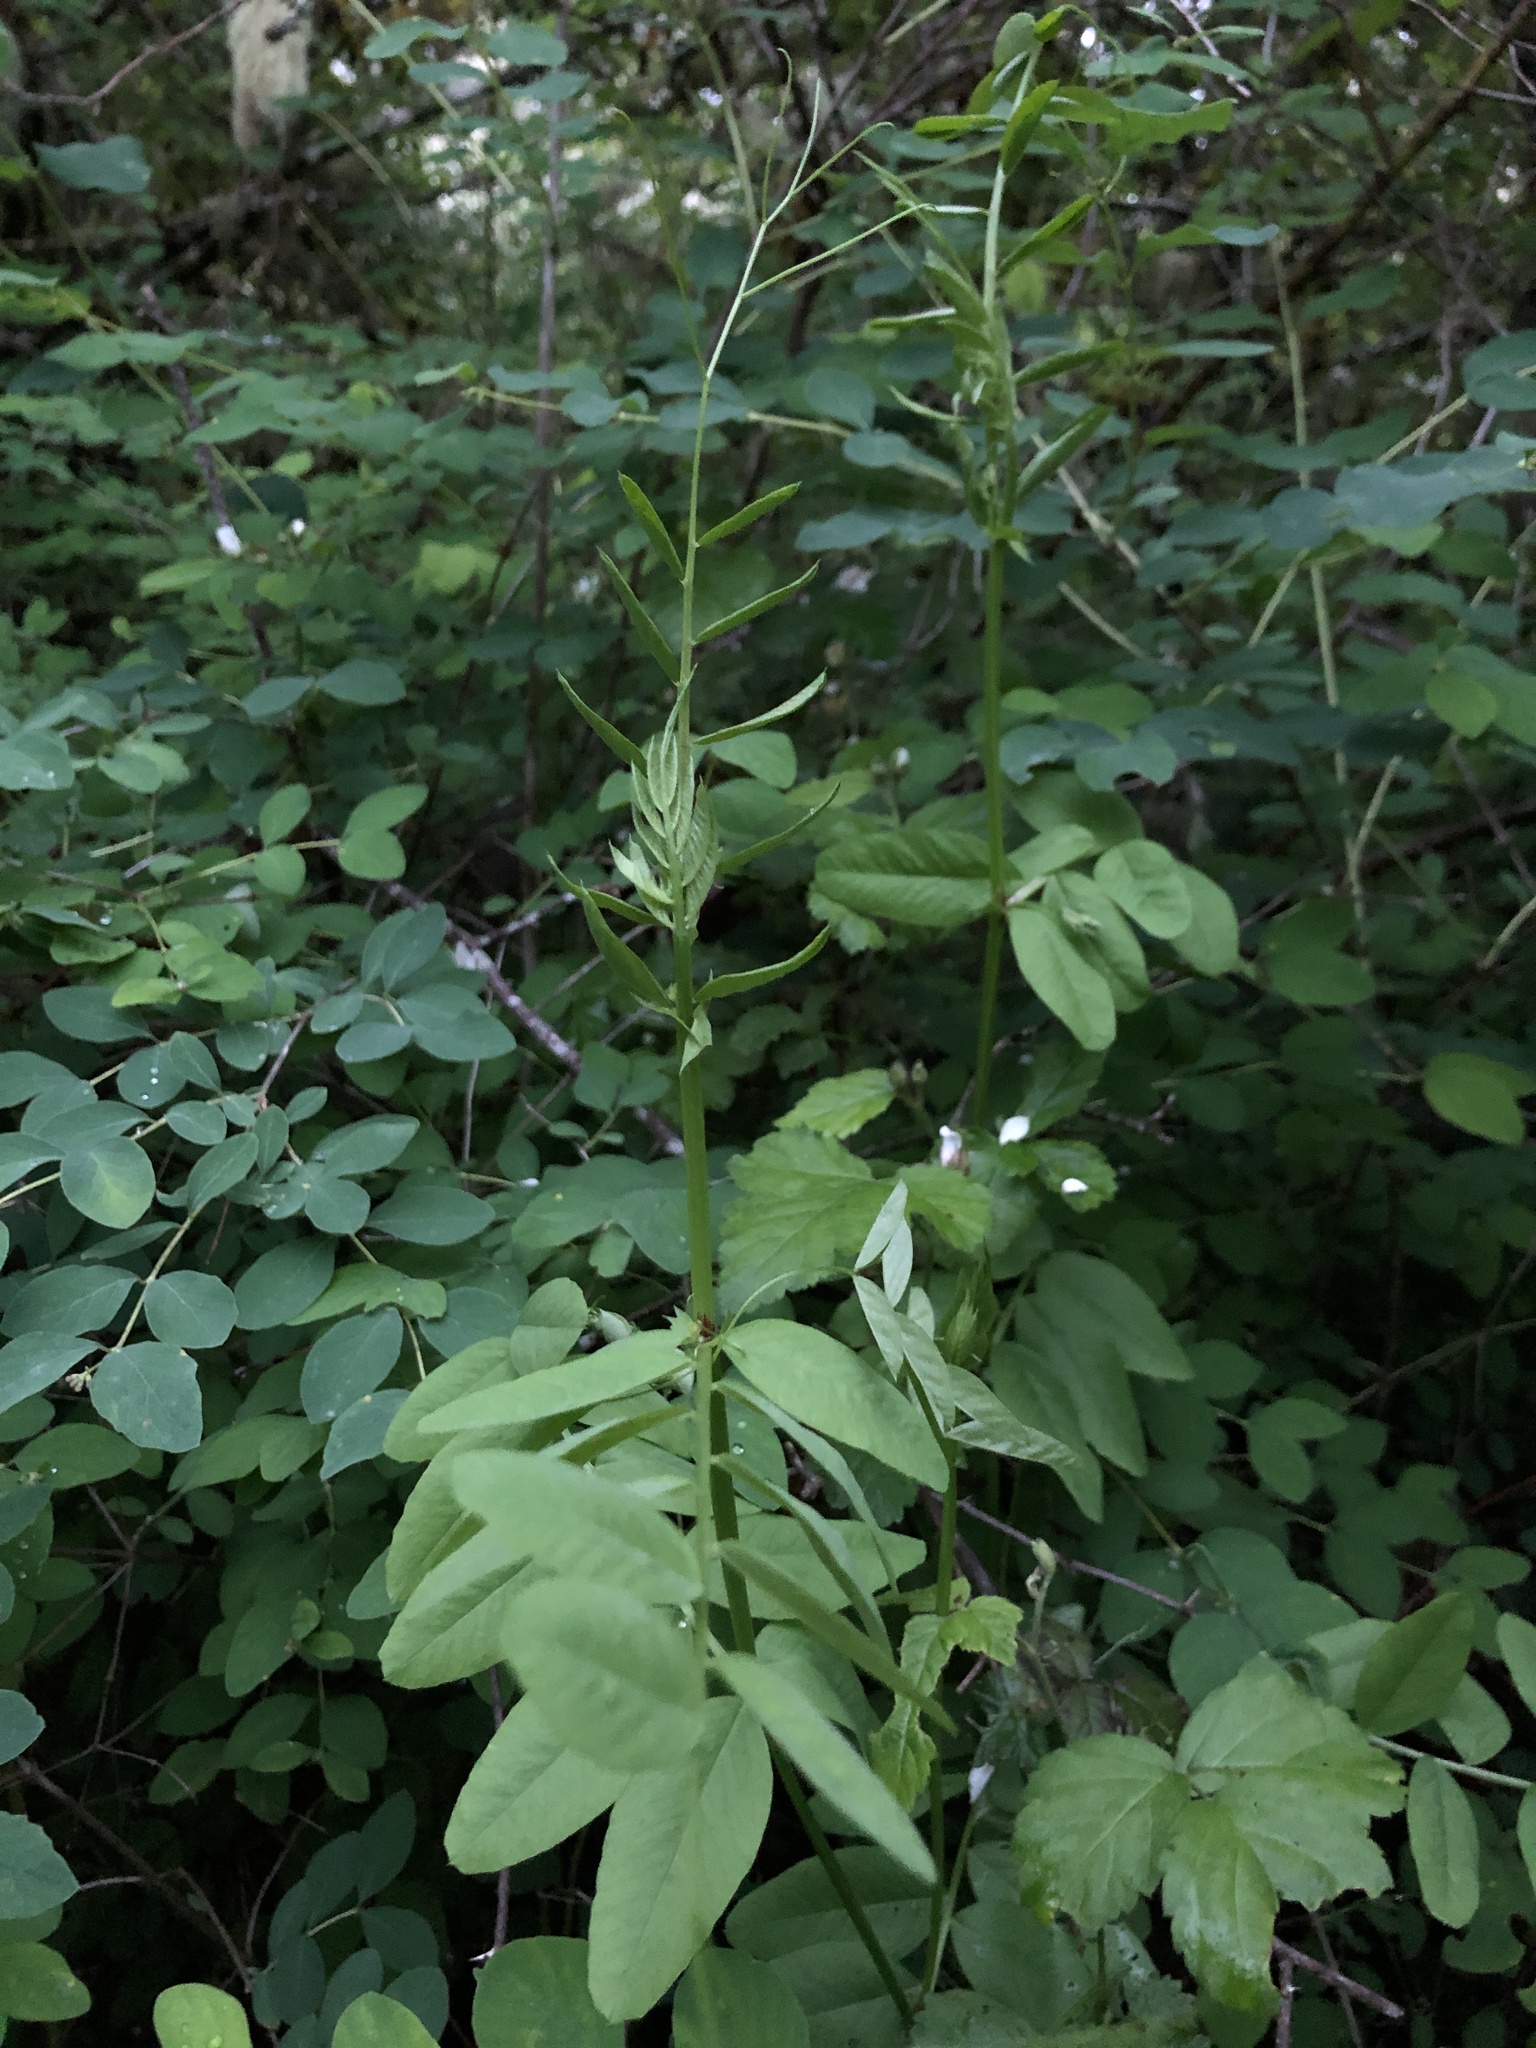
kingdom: Plantae
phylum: Tracheophyta
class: Magnoliopsida
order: Fabales
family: Fabaceae
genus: Vicia
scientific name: Vicia americana
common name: American vetch
